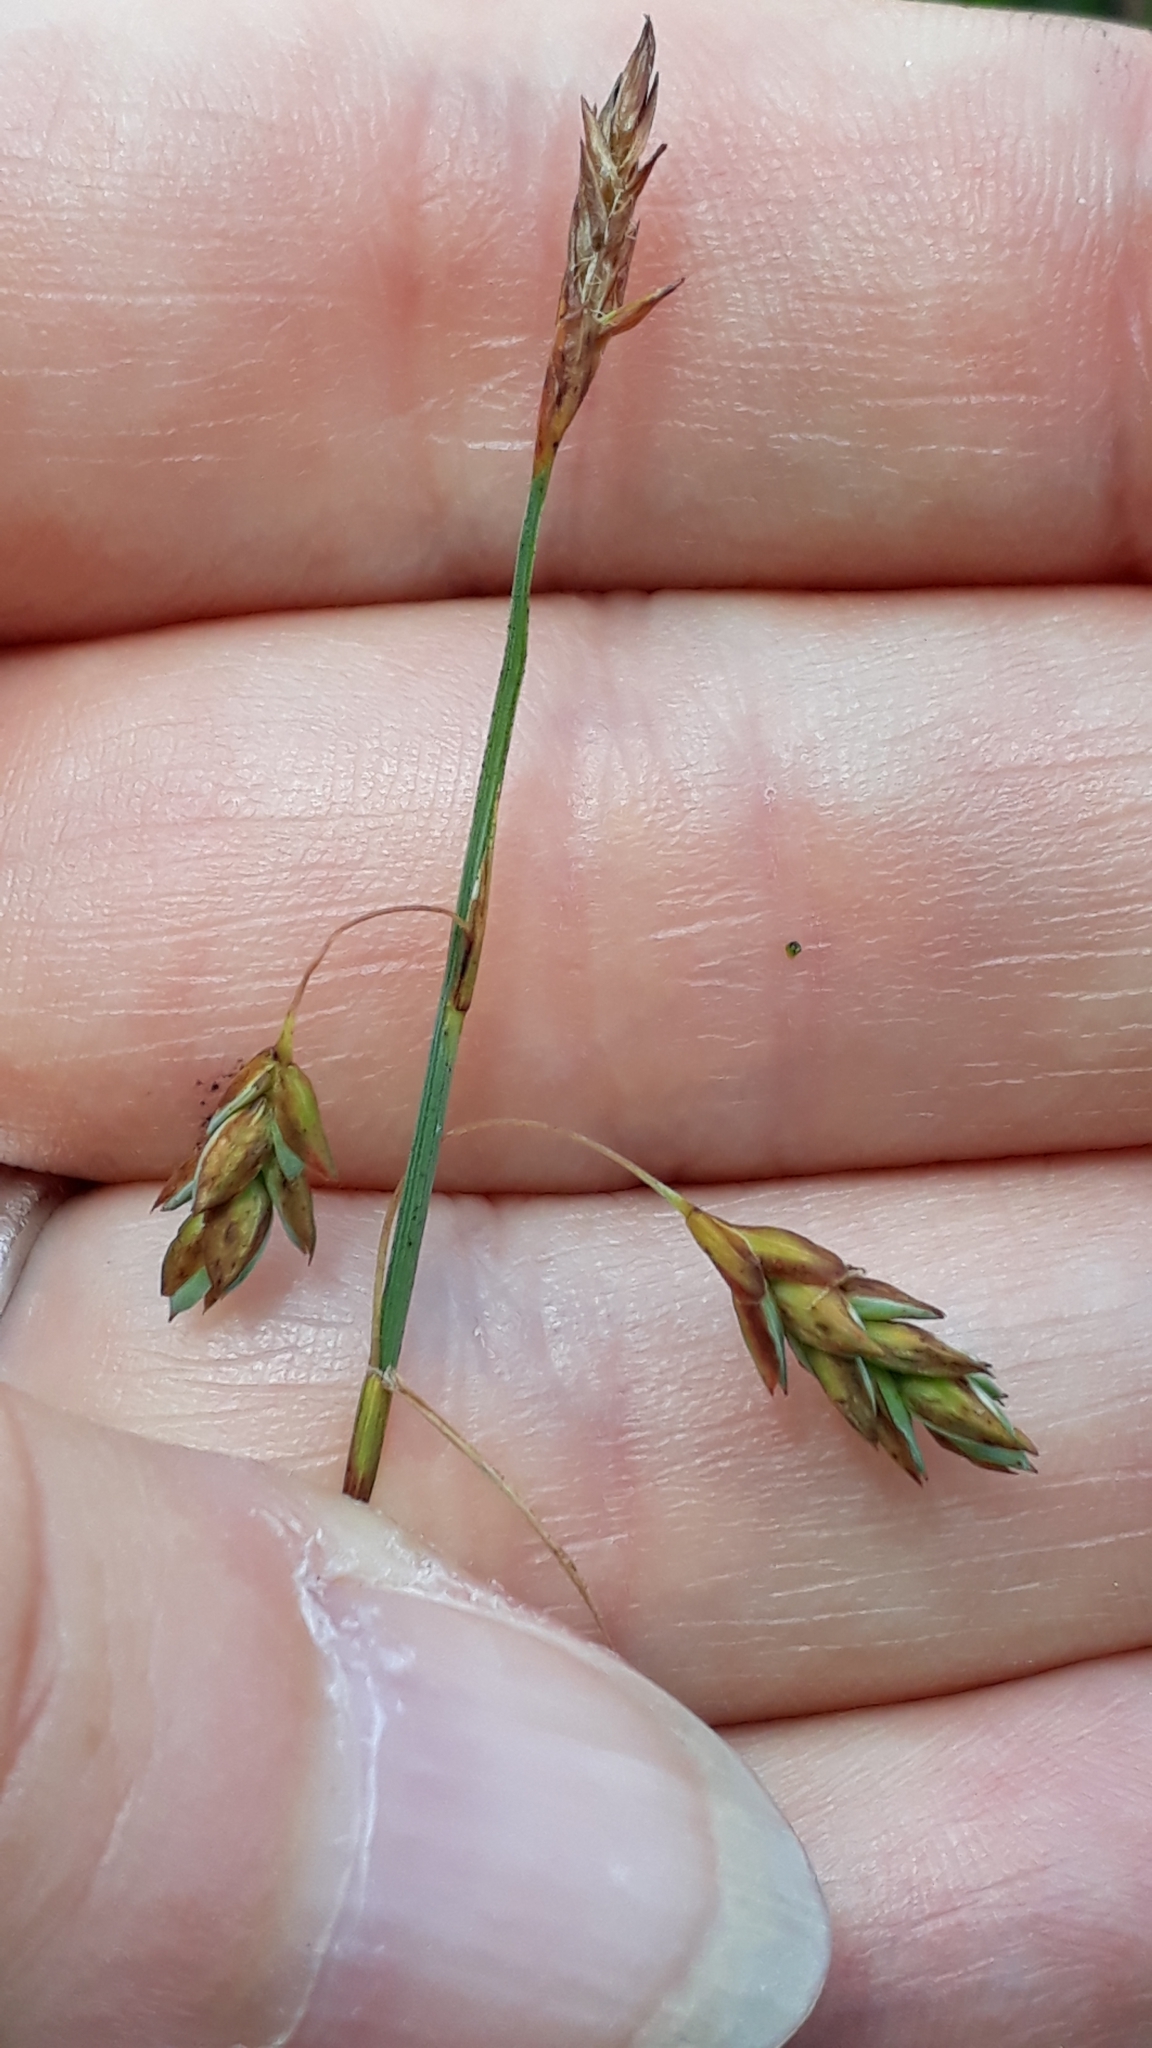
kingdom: Plantae
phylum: Tracheophyta
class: Liliopsida
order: Poales
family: Cyperaceae
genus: Carex
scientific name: Carex limosa
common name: Bog sedge
